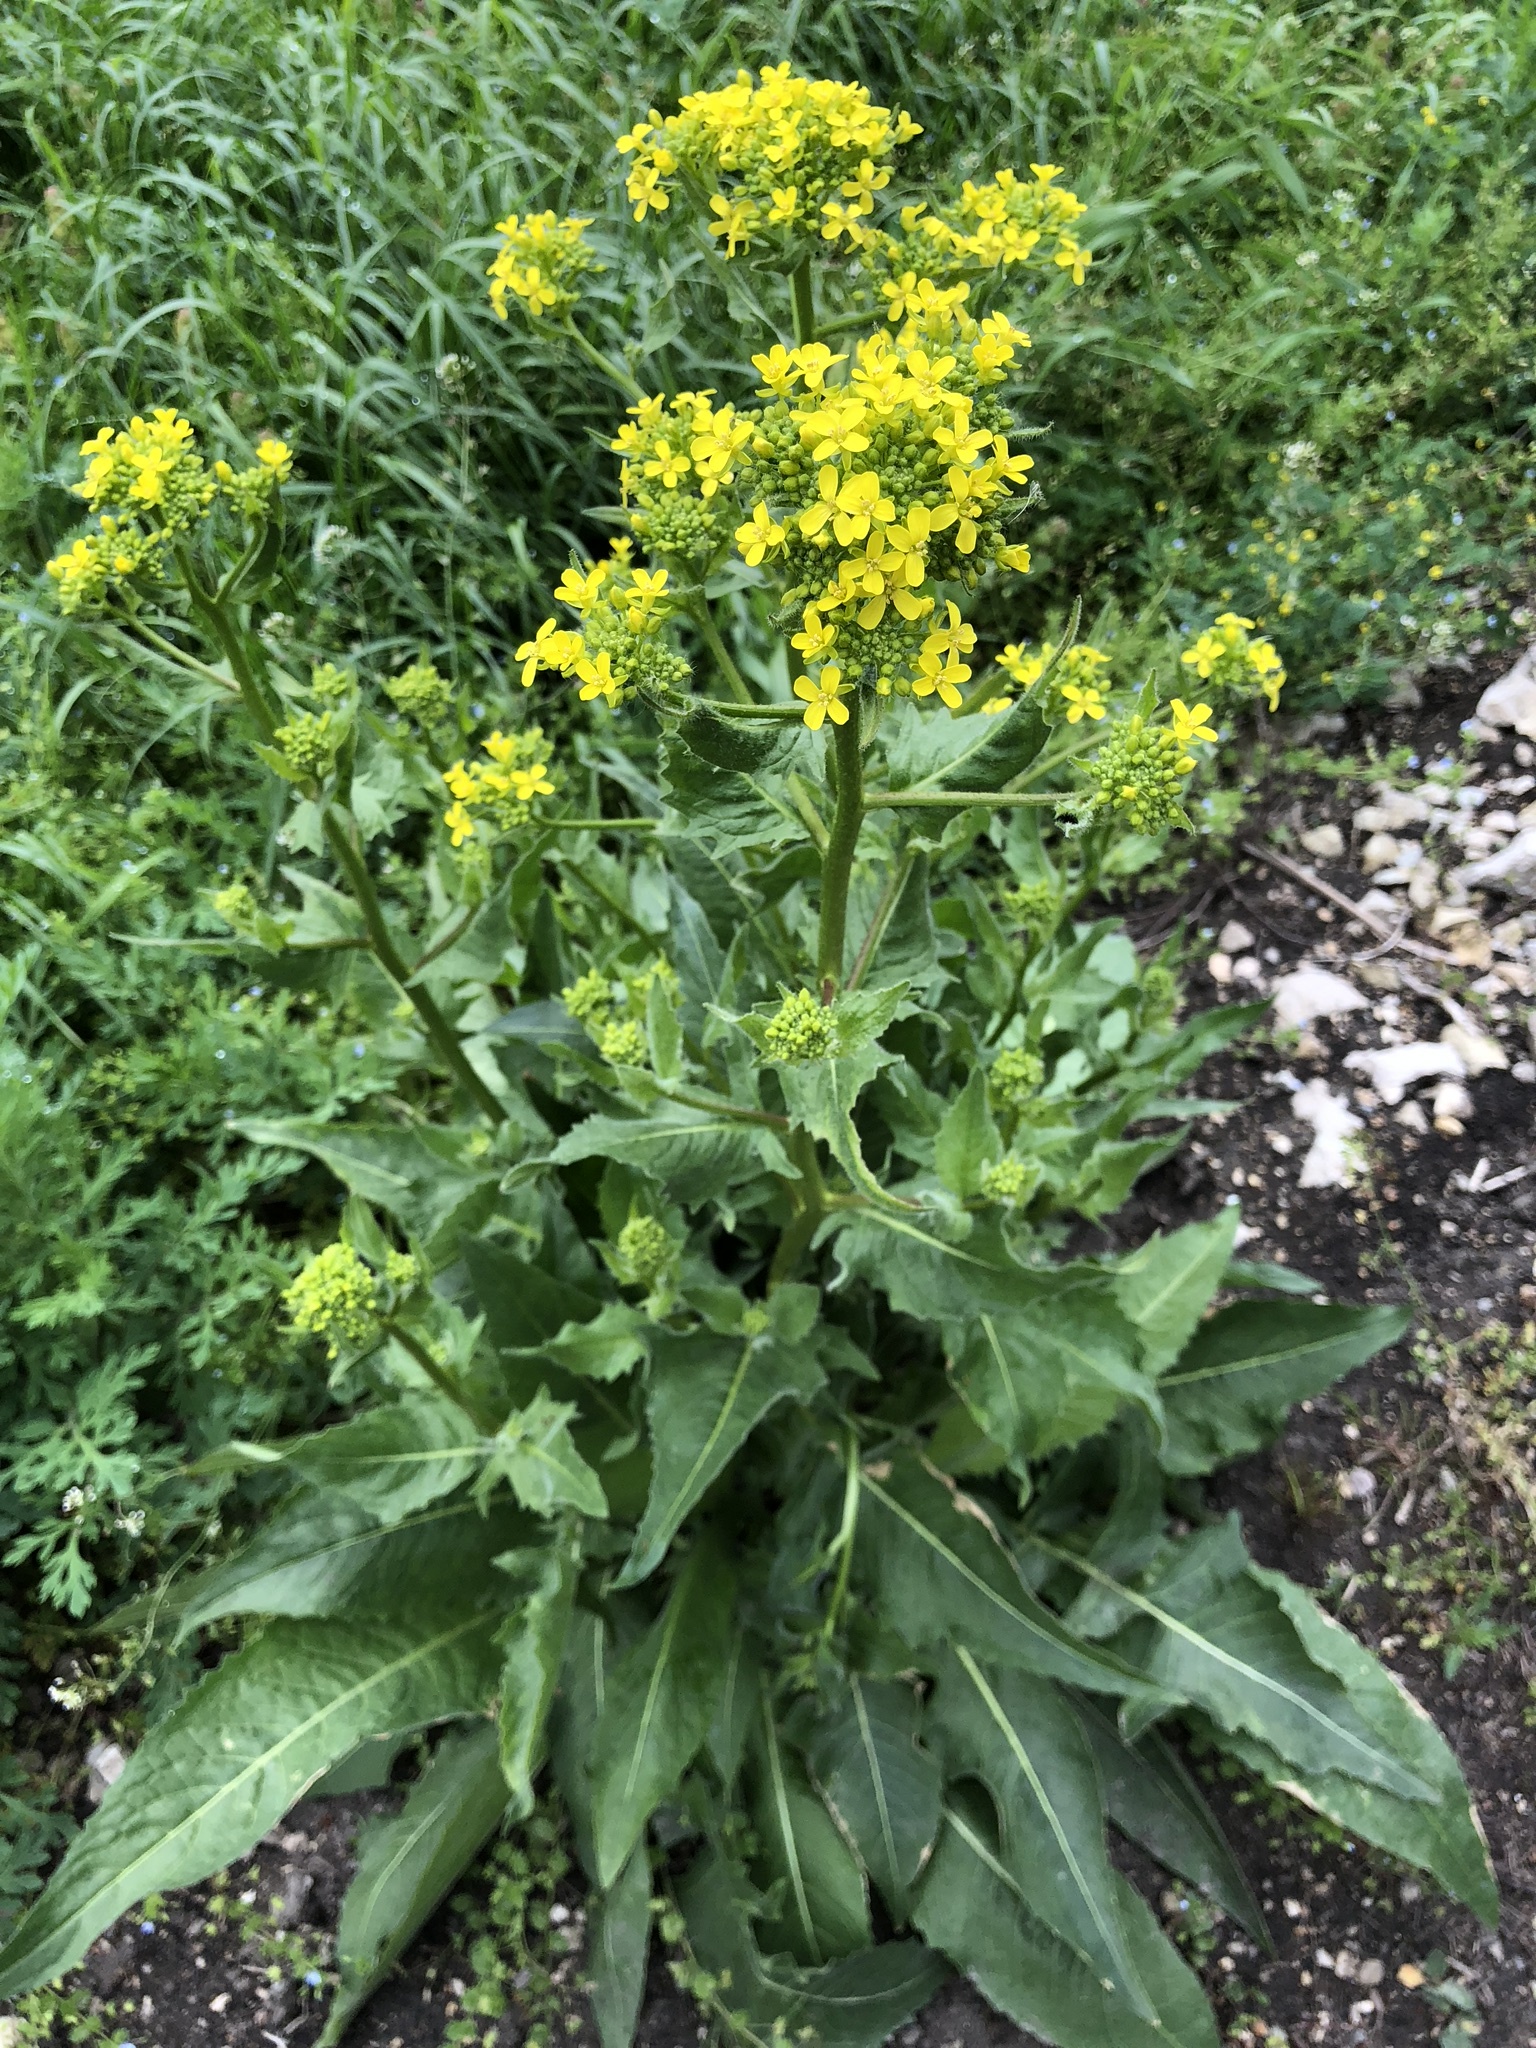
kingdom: Plantae
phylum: Tracheophyta
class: Magnoliopsida
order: Brassicales
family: Brassicaceae
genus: Bunias
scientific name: Bunias orientalis
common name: Warty-cabbage
